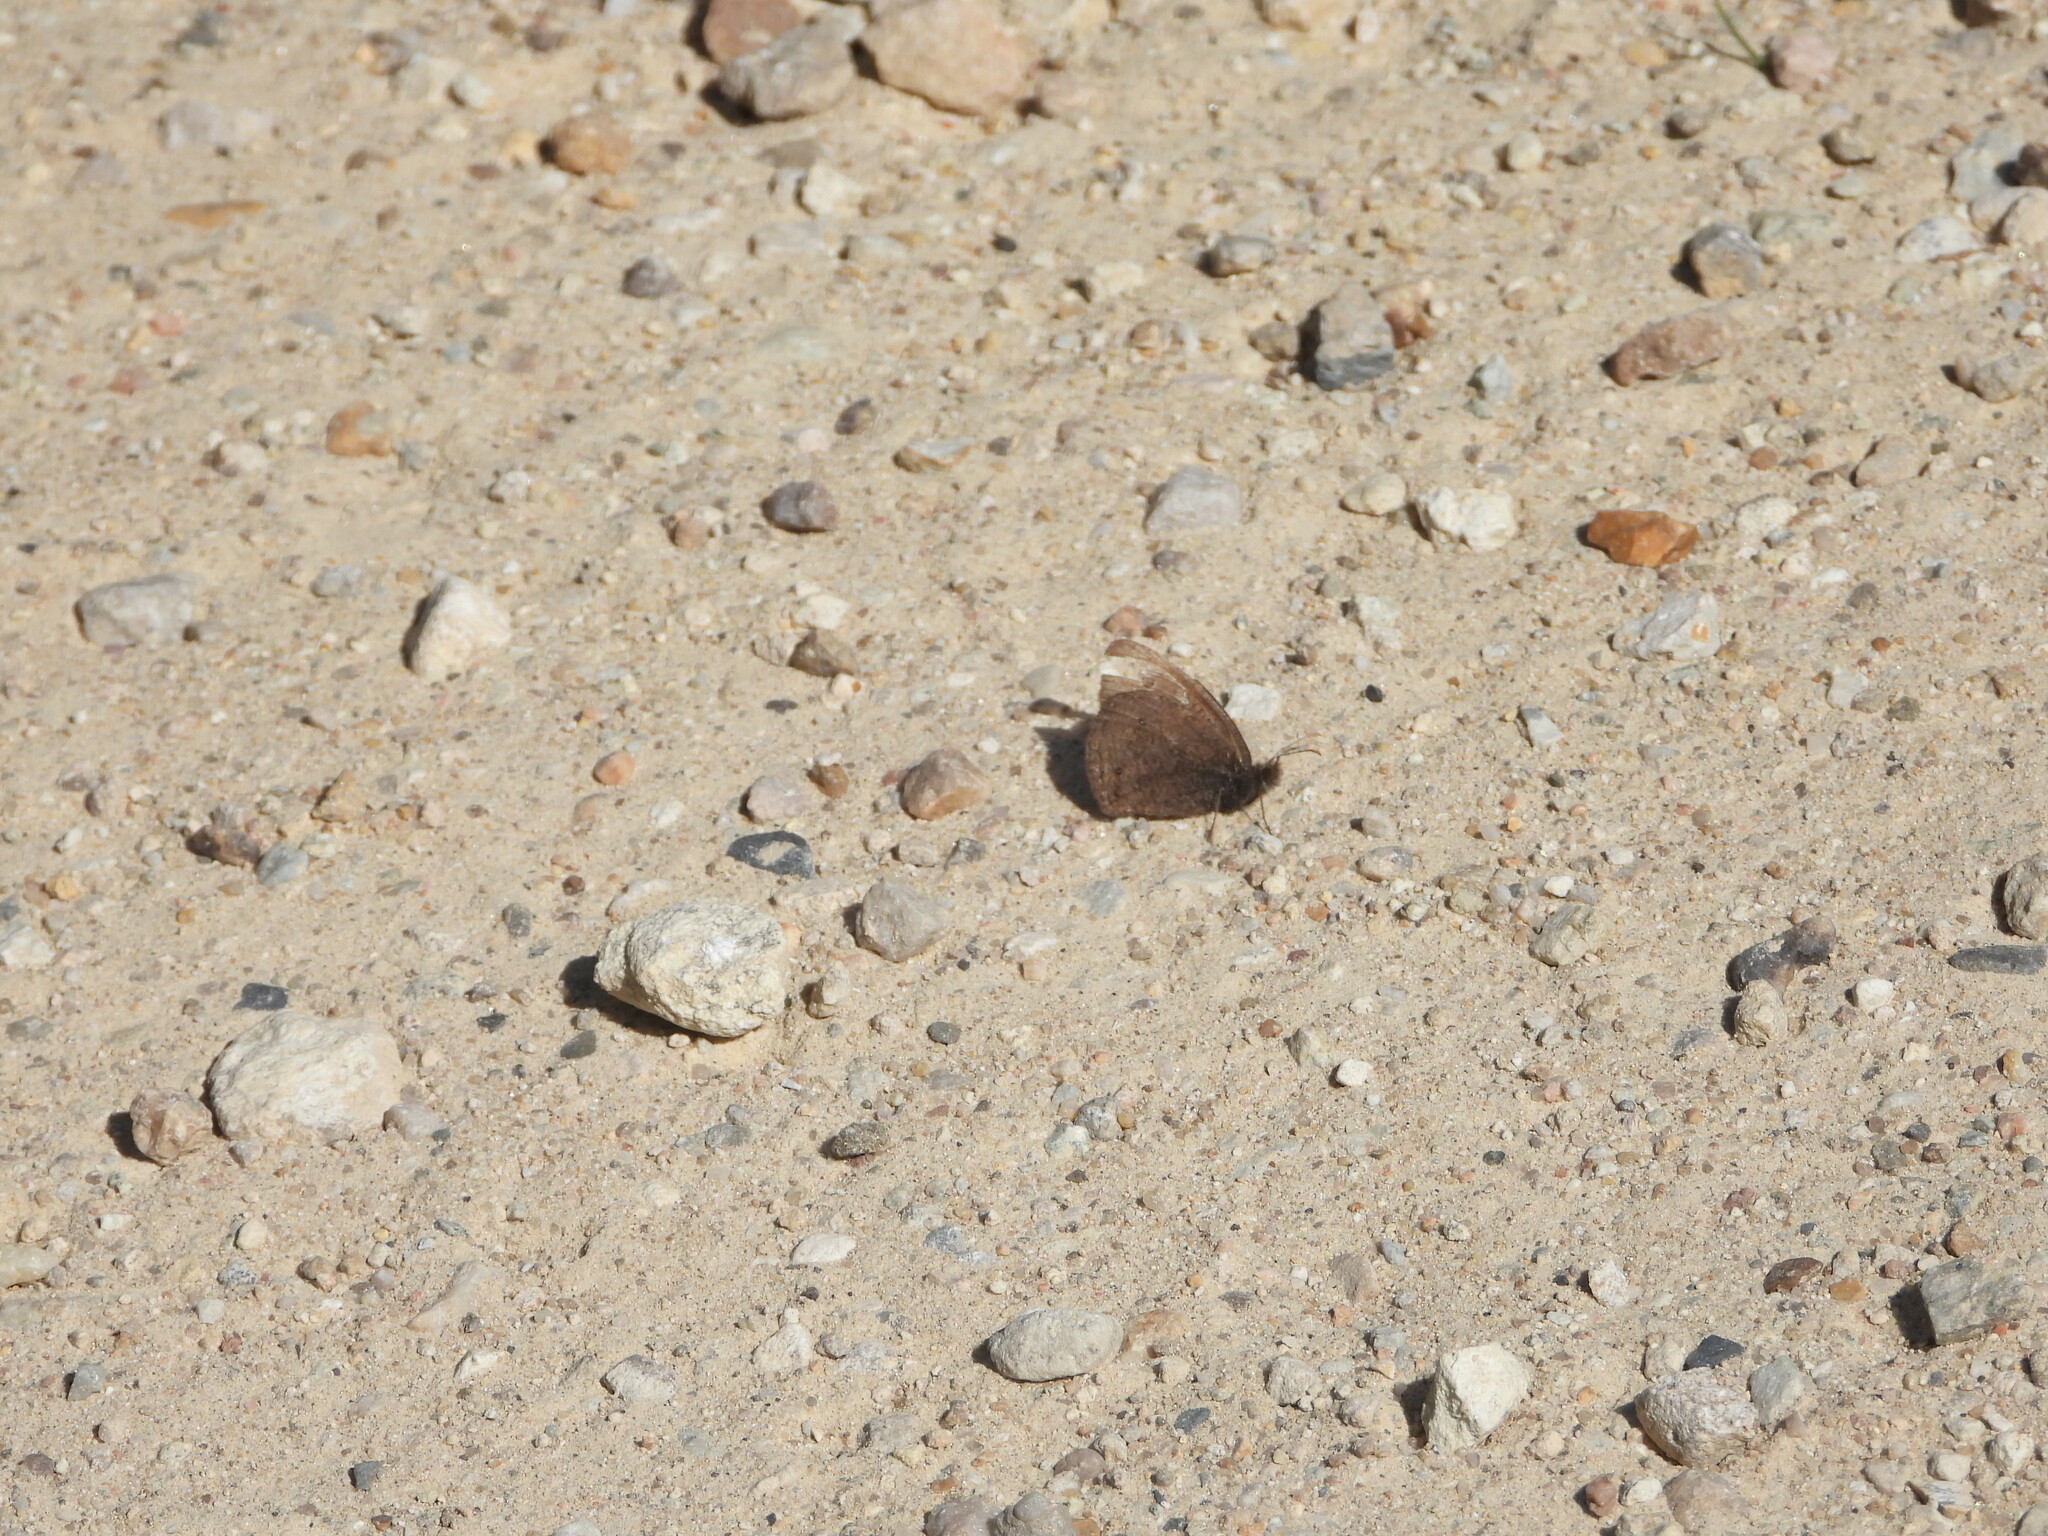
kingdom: Animalia
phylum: Arthropoda
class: Insecta
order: Lepidoptera
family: Nymphalidae
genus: Cercyonis
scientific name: Cercyonis oetus
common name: Small wood-nymph
